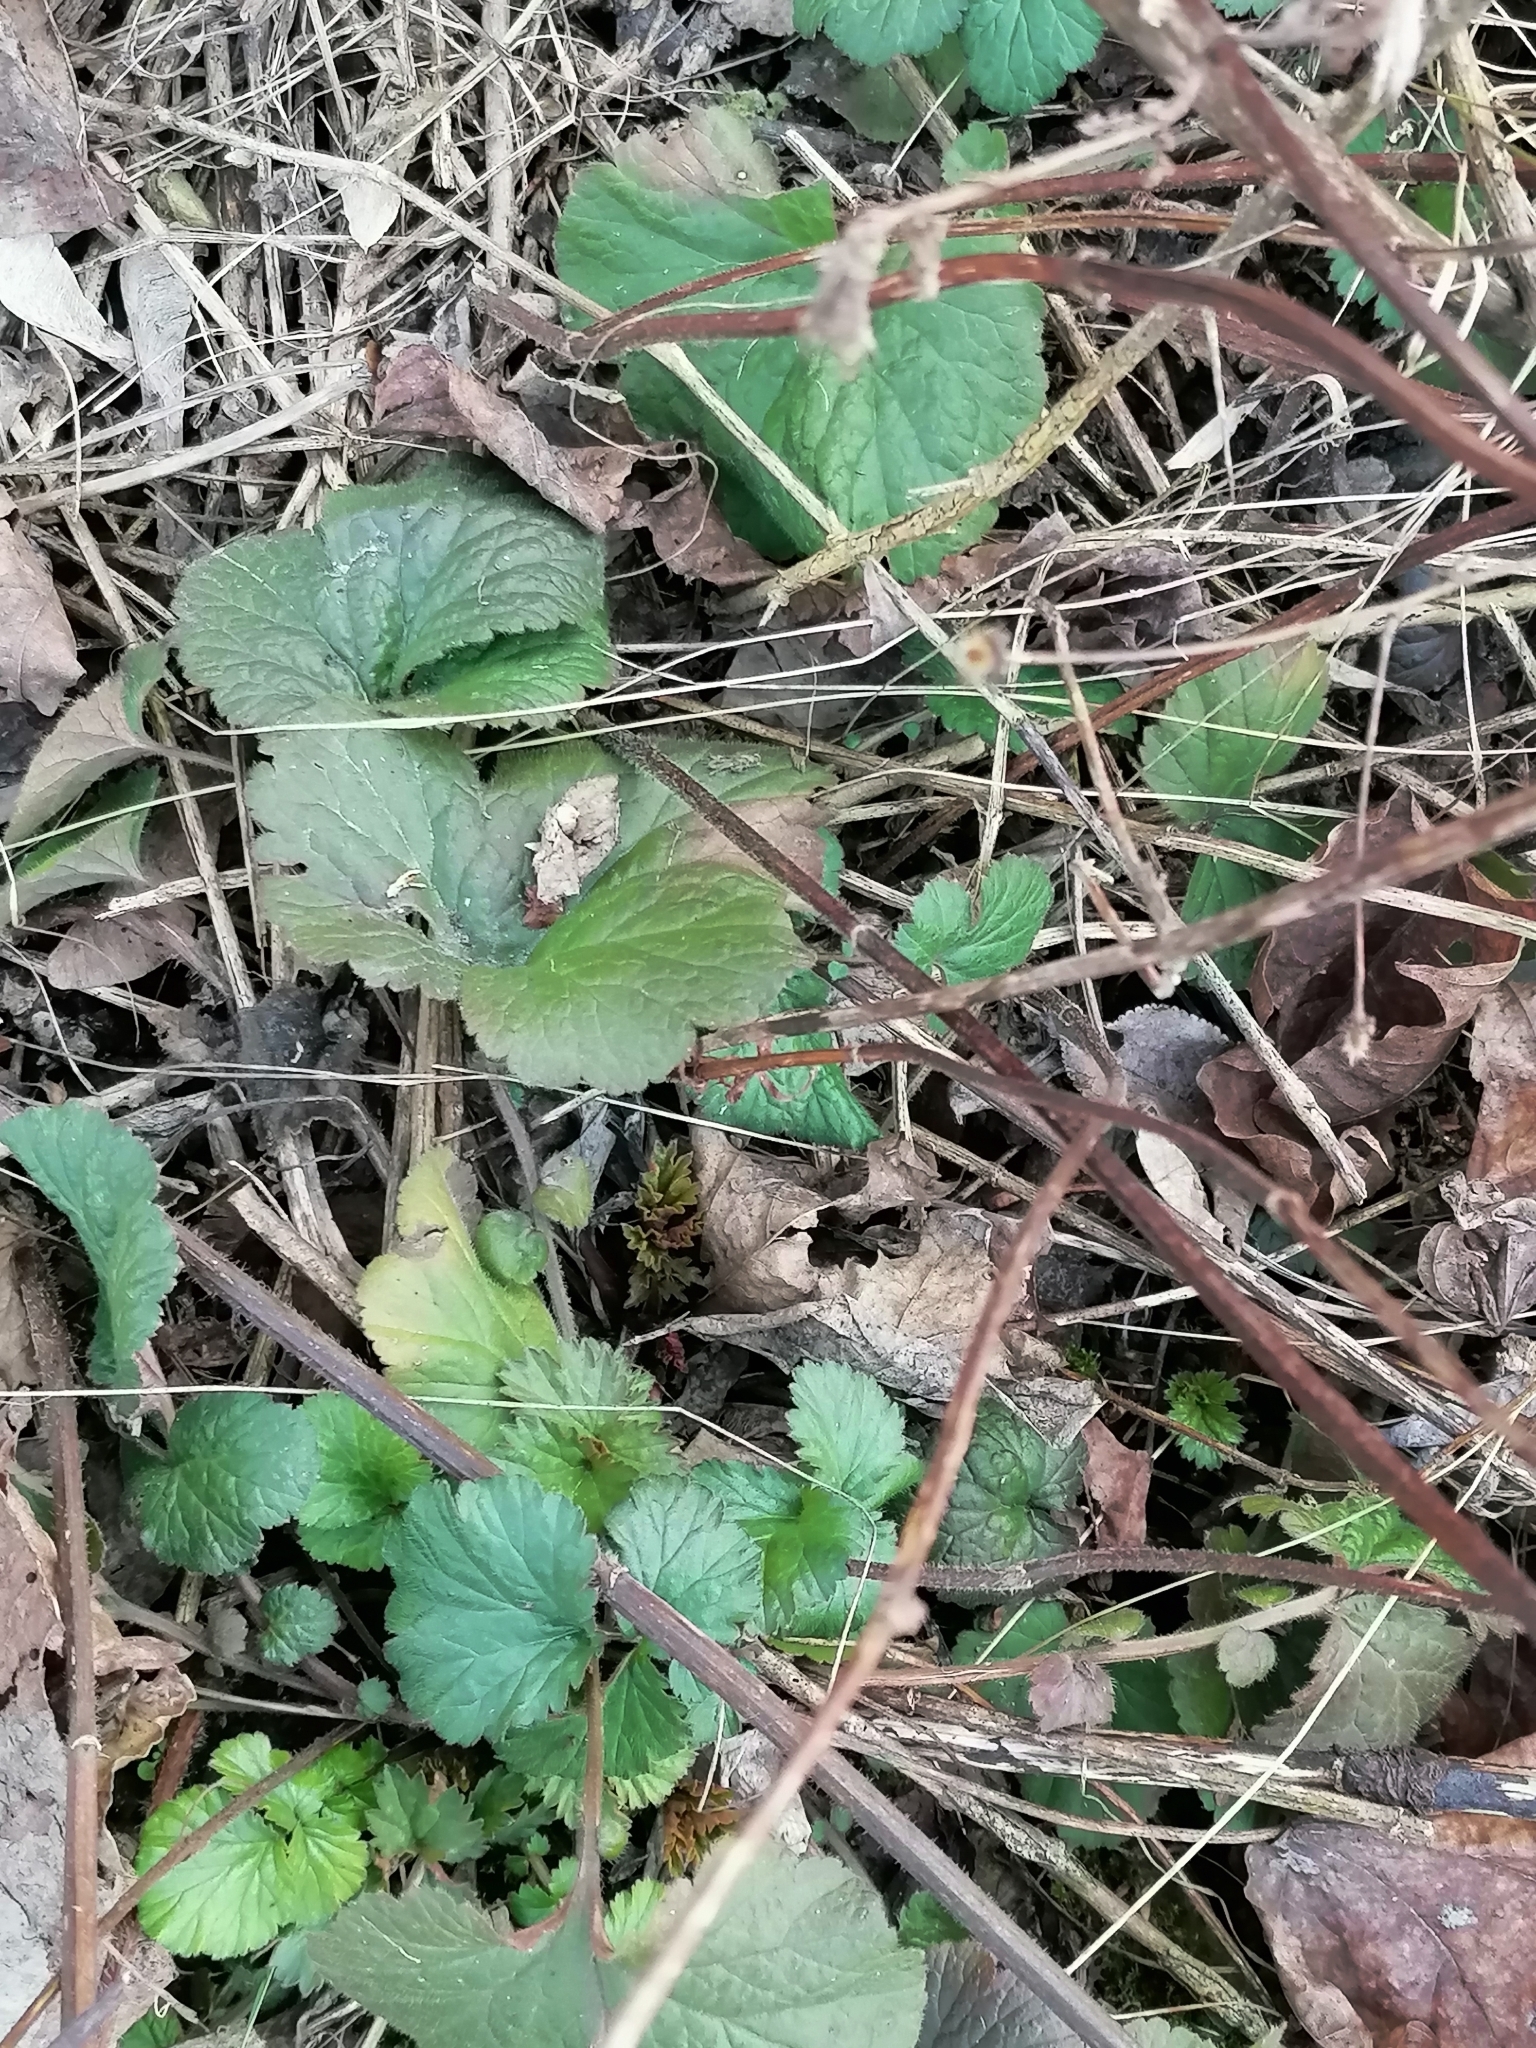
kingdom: Plantae
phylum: Tracheophyta
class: Magnoliopsida
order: Rosales
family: Rosaceae
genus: Geum
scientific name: Geum urbanum
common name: Wood avens
